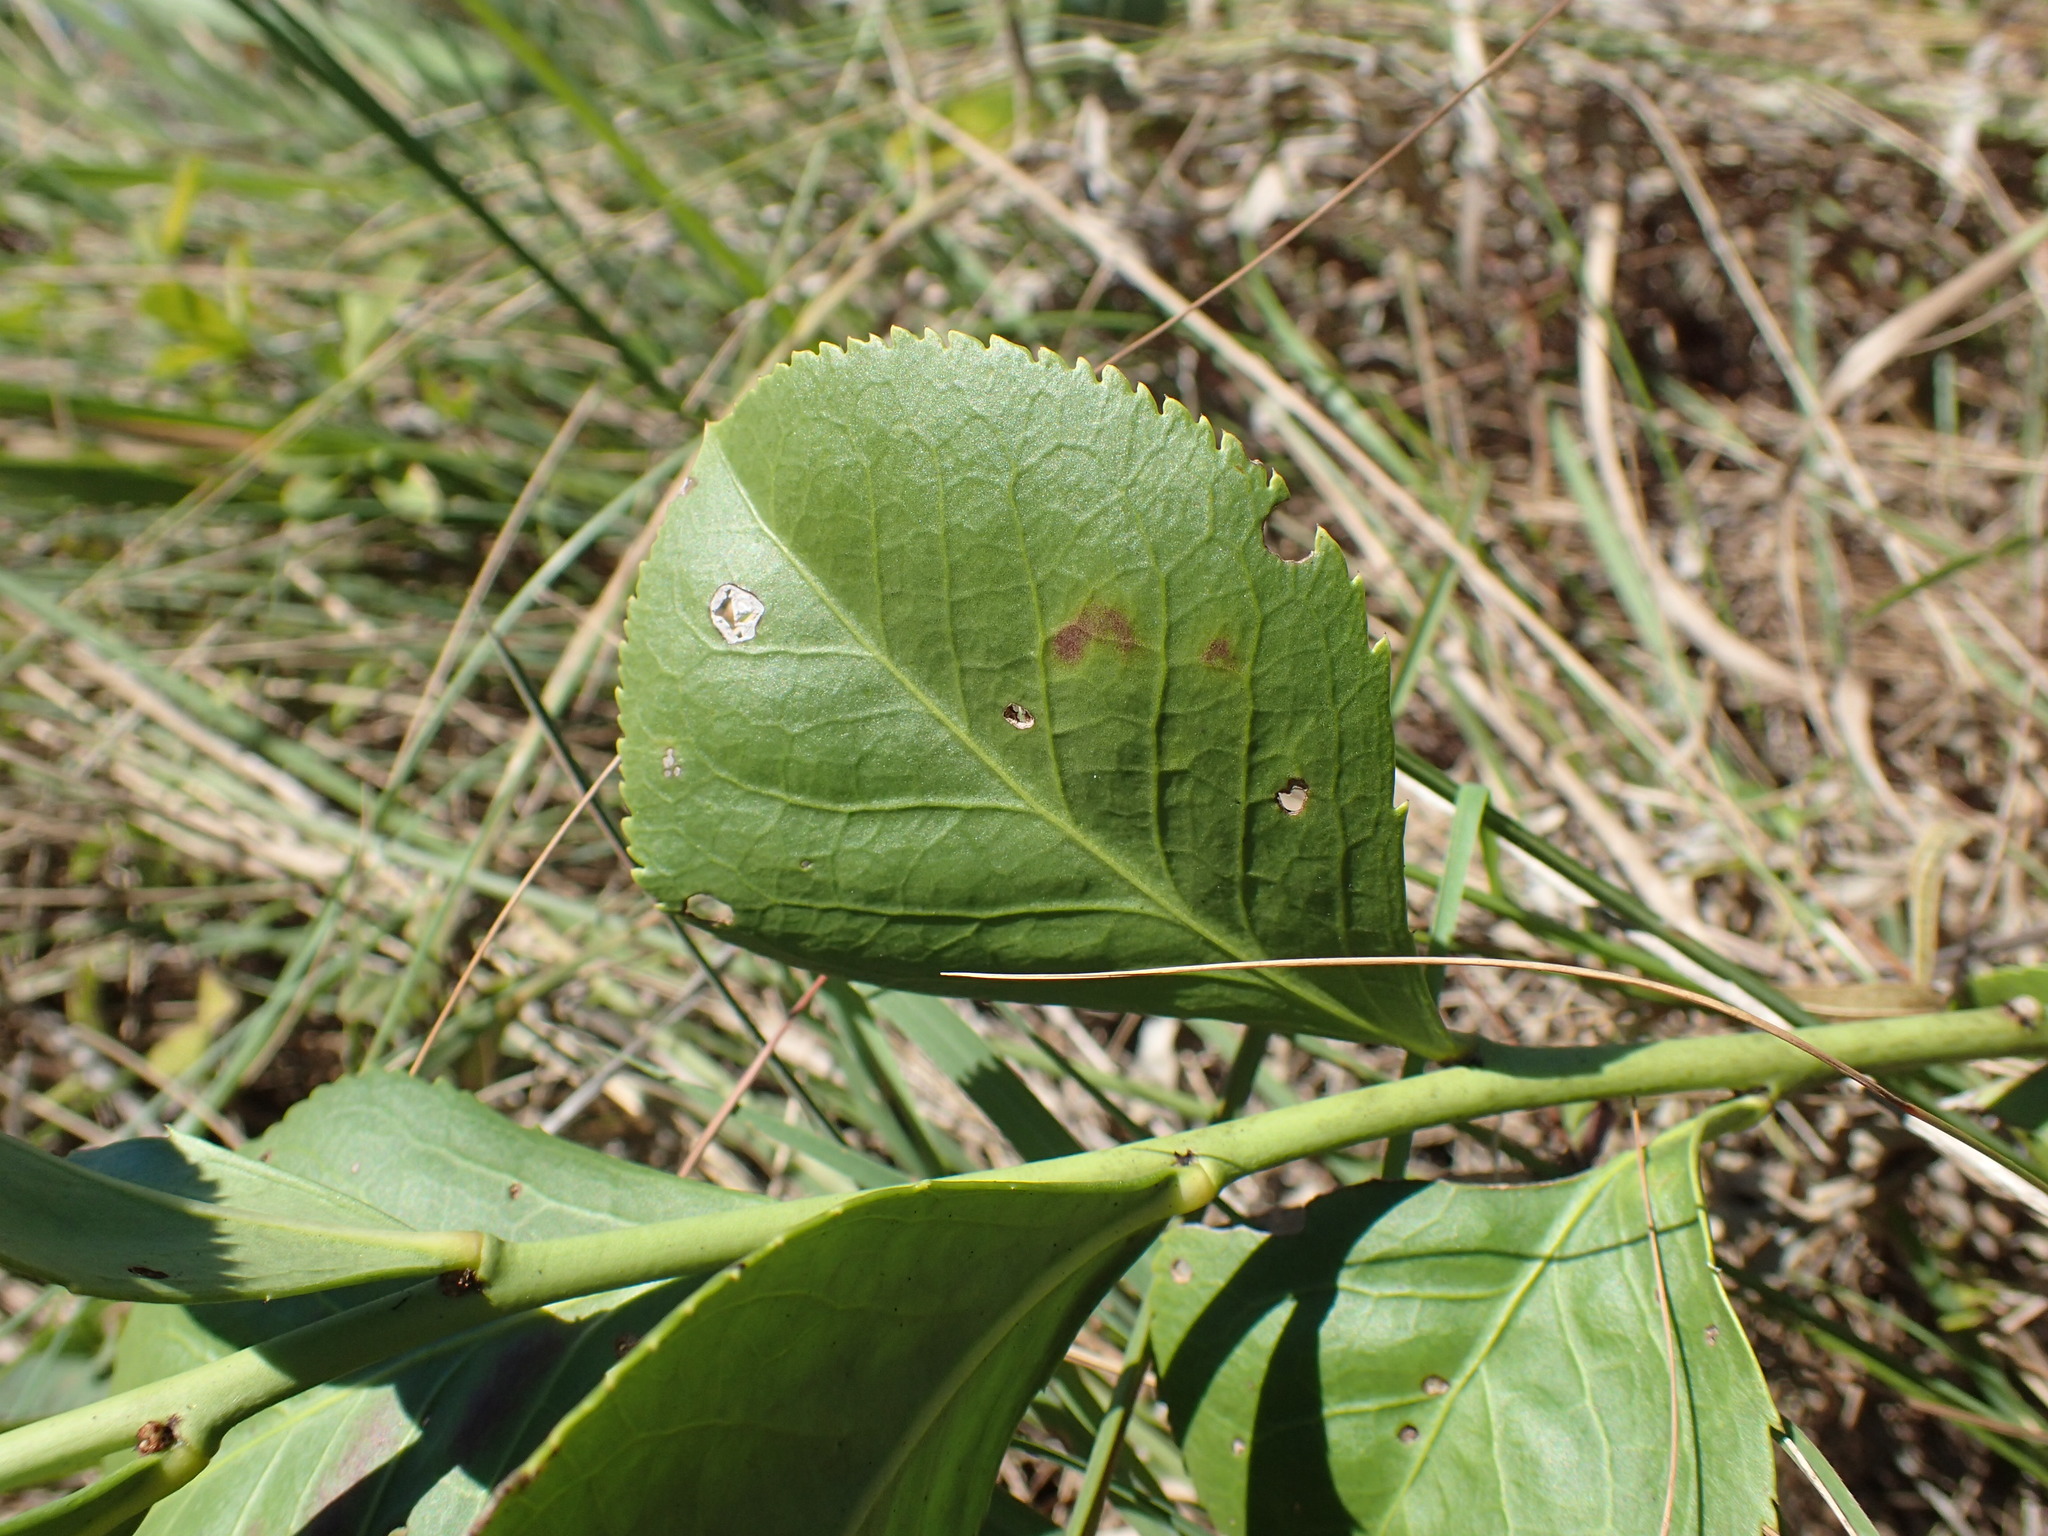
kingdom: Plantae
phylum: Tracheophyta
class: Magnoliopsida
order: Celastrales
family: Celastraceae
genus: Gymnosporia
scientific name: Gymnosporia woodii
